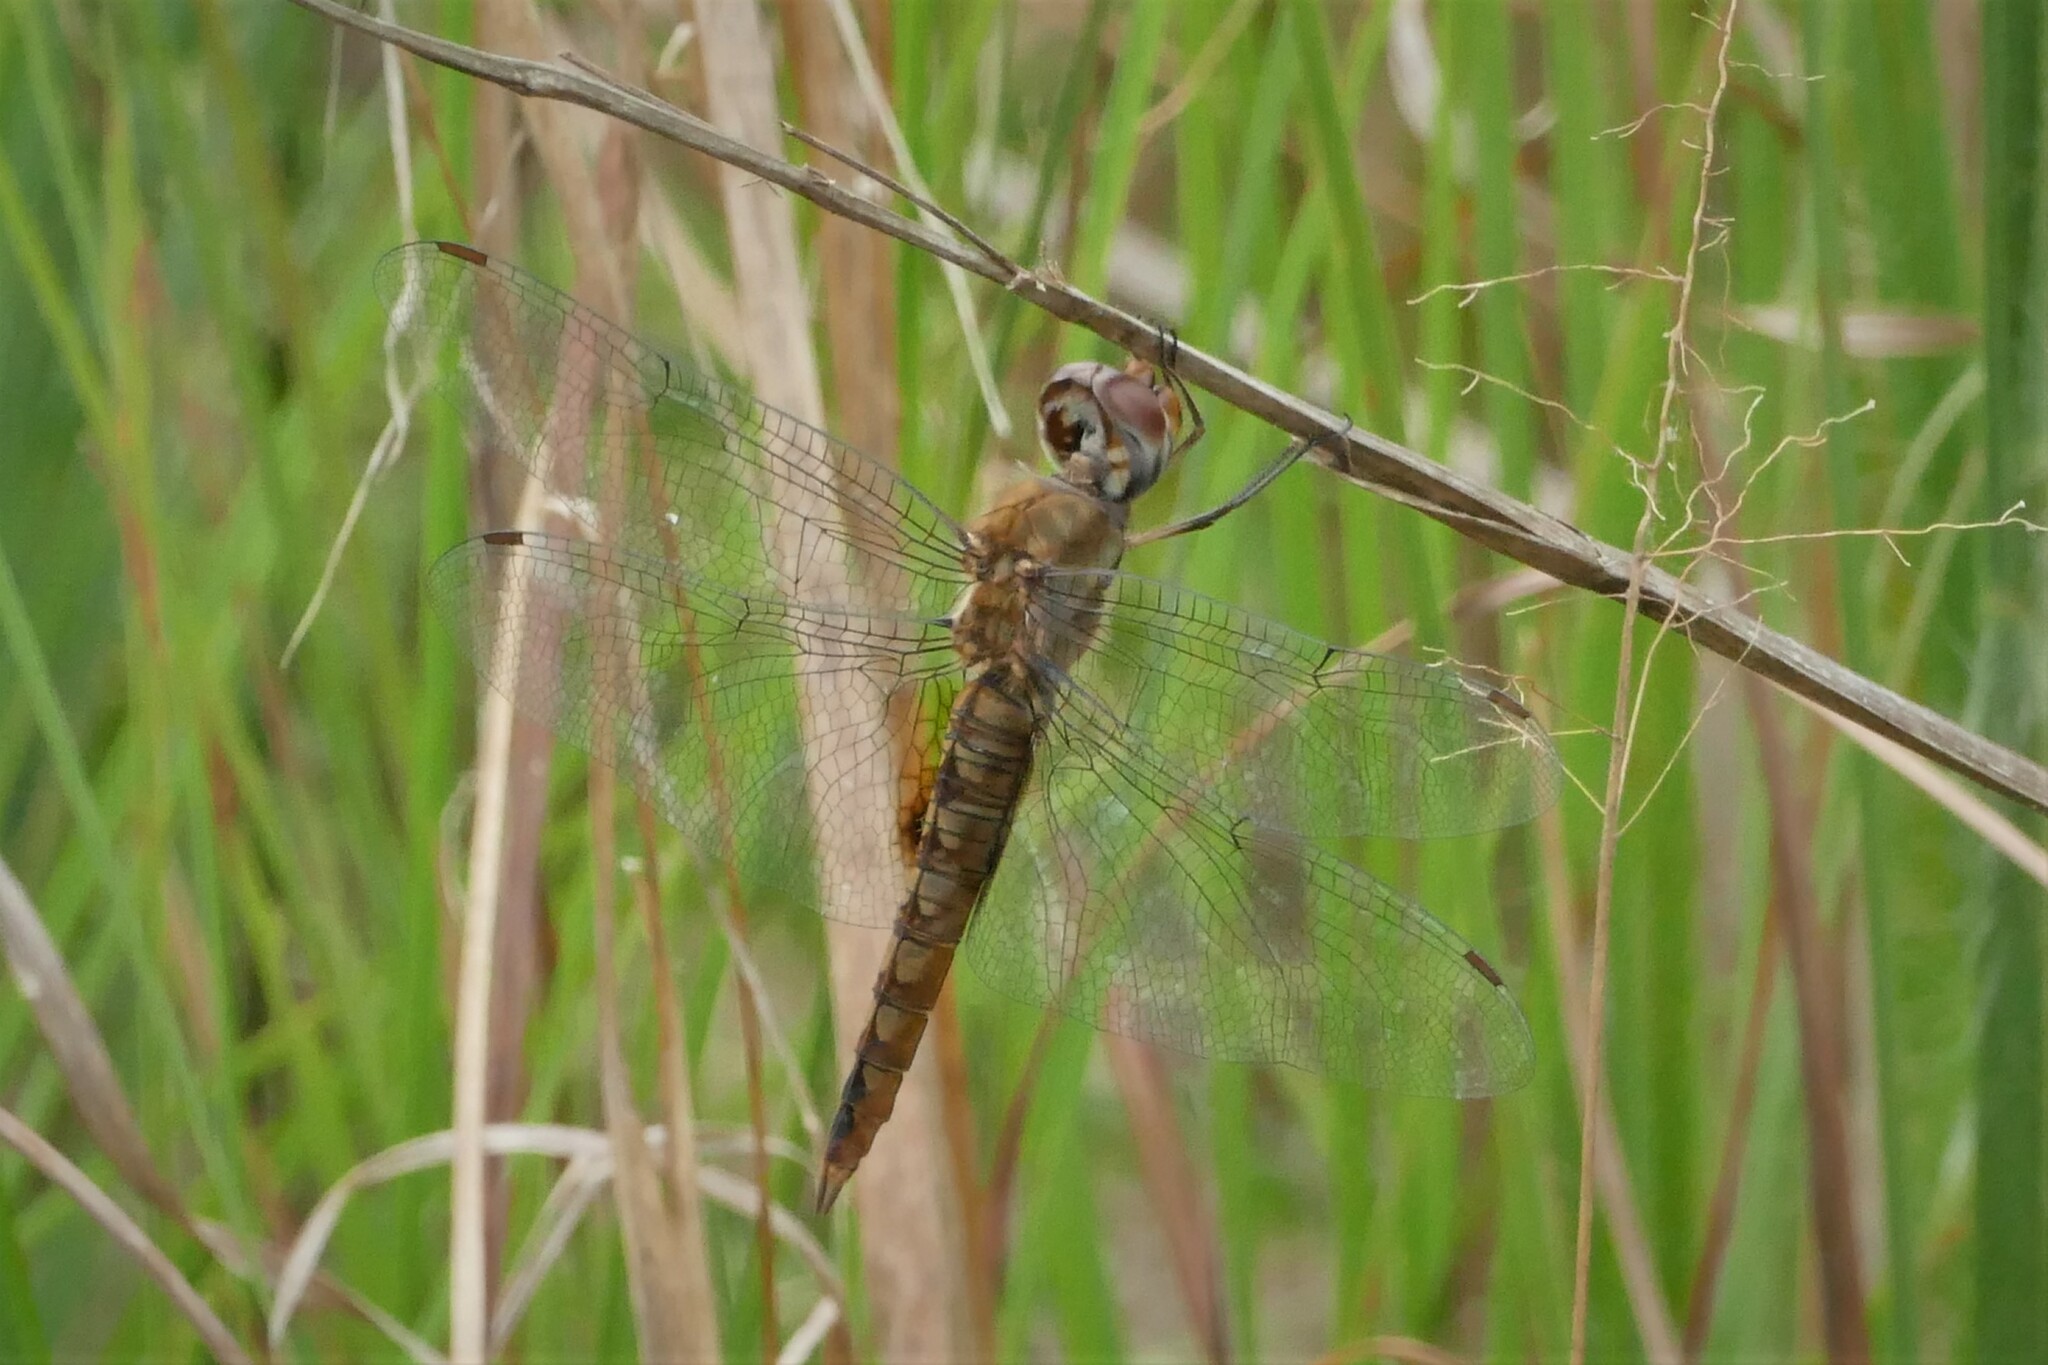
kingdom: Animalia
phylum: Arthropoda
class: Insecta
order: Odonata
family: Libellulidae
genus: Pantala
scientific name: Pantala hymenaea
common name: Spot-winged glider
